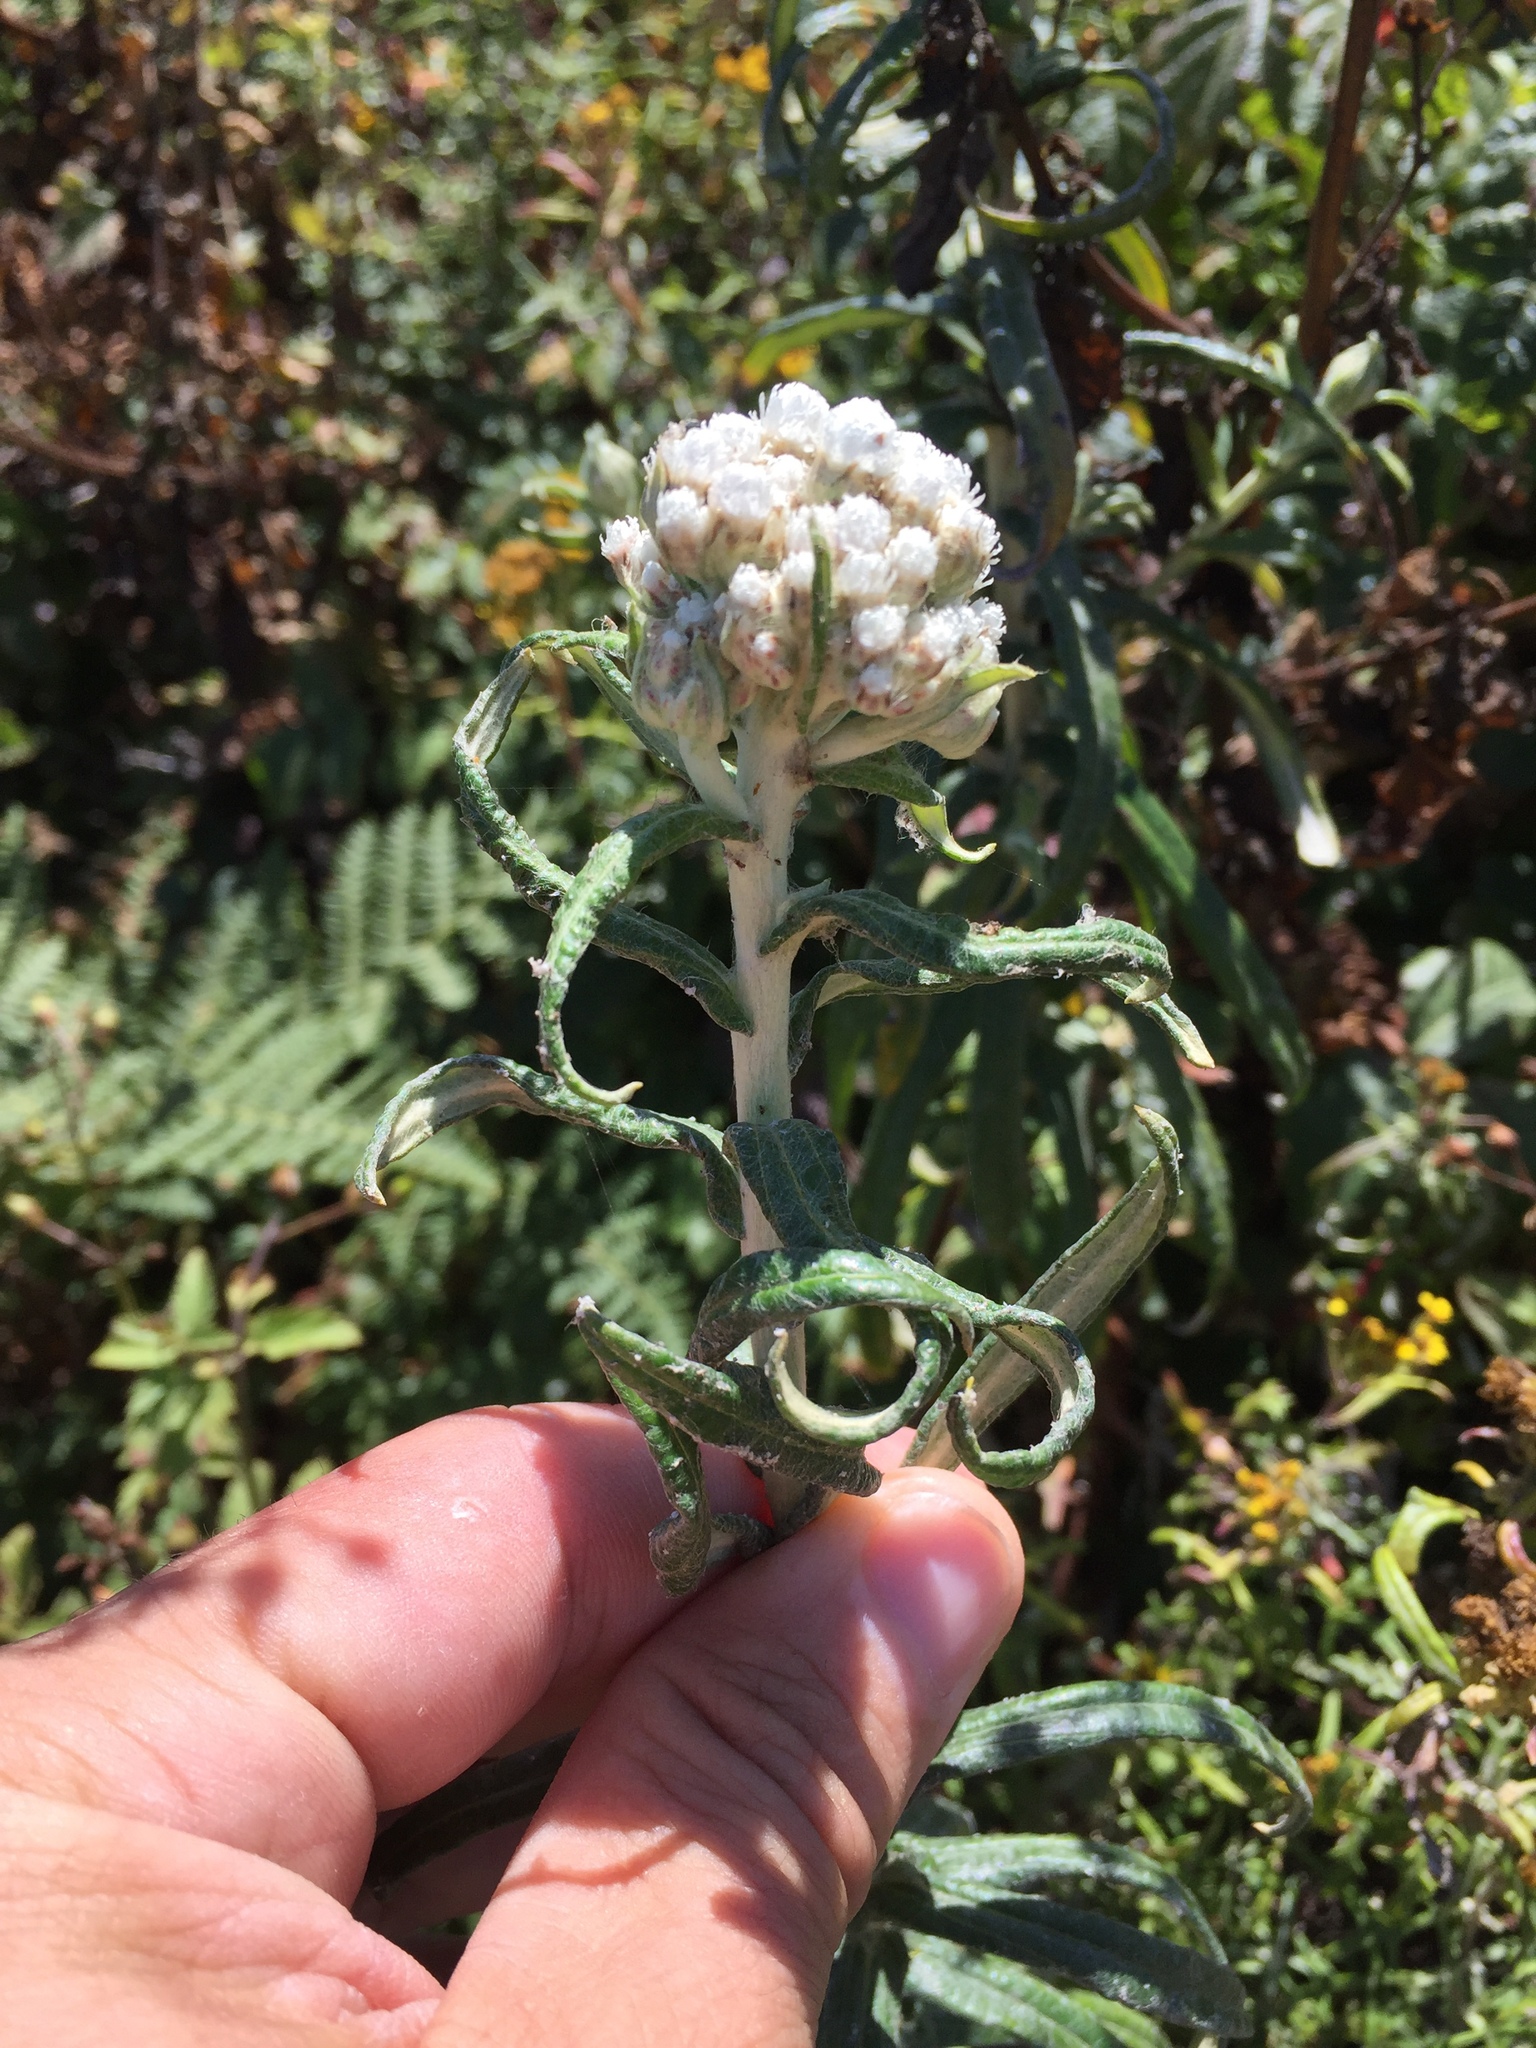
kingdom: Plantae
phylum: Tracheophyta
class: Magnoliopsida
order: Asterales
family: Asteraceae
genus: Anaphalis
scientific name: Anaphalis margaritacea
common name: Pearly everlasting
